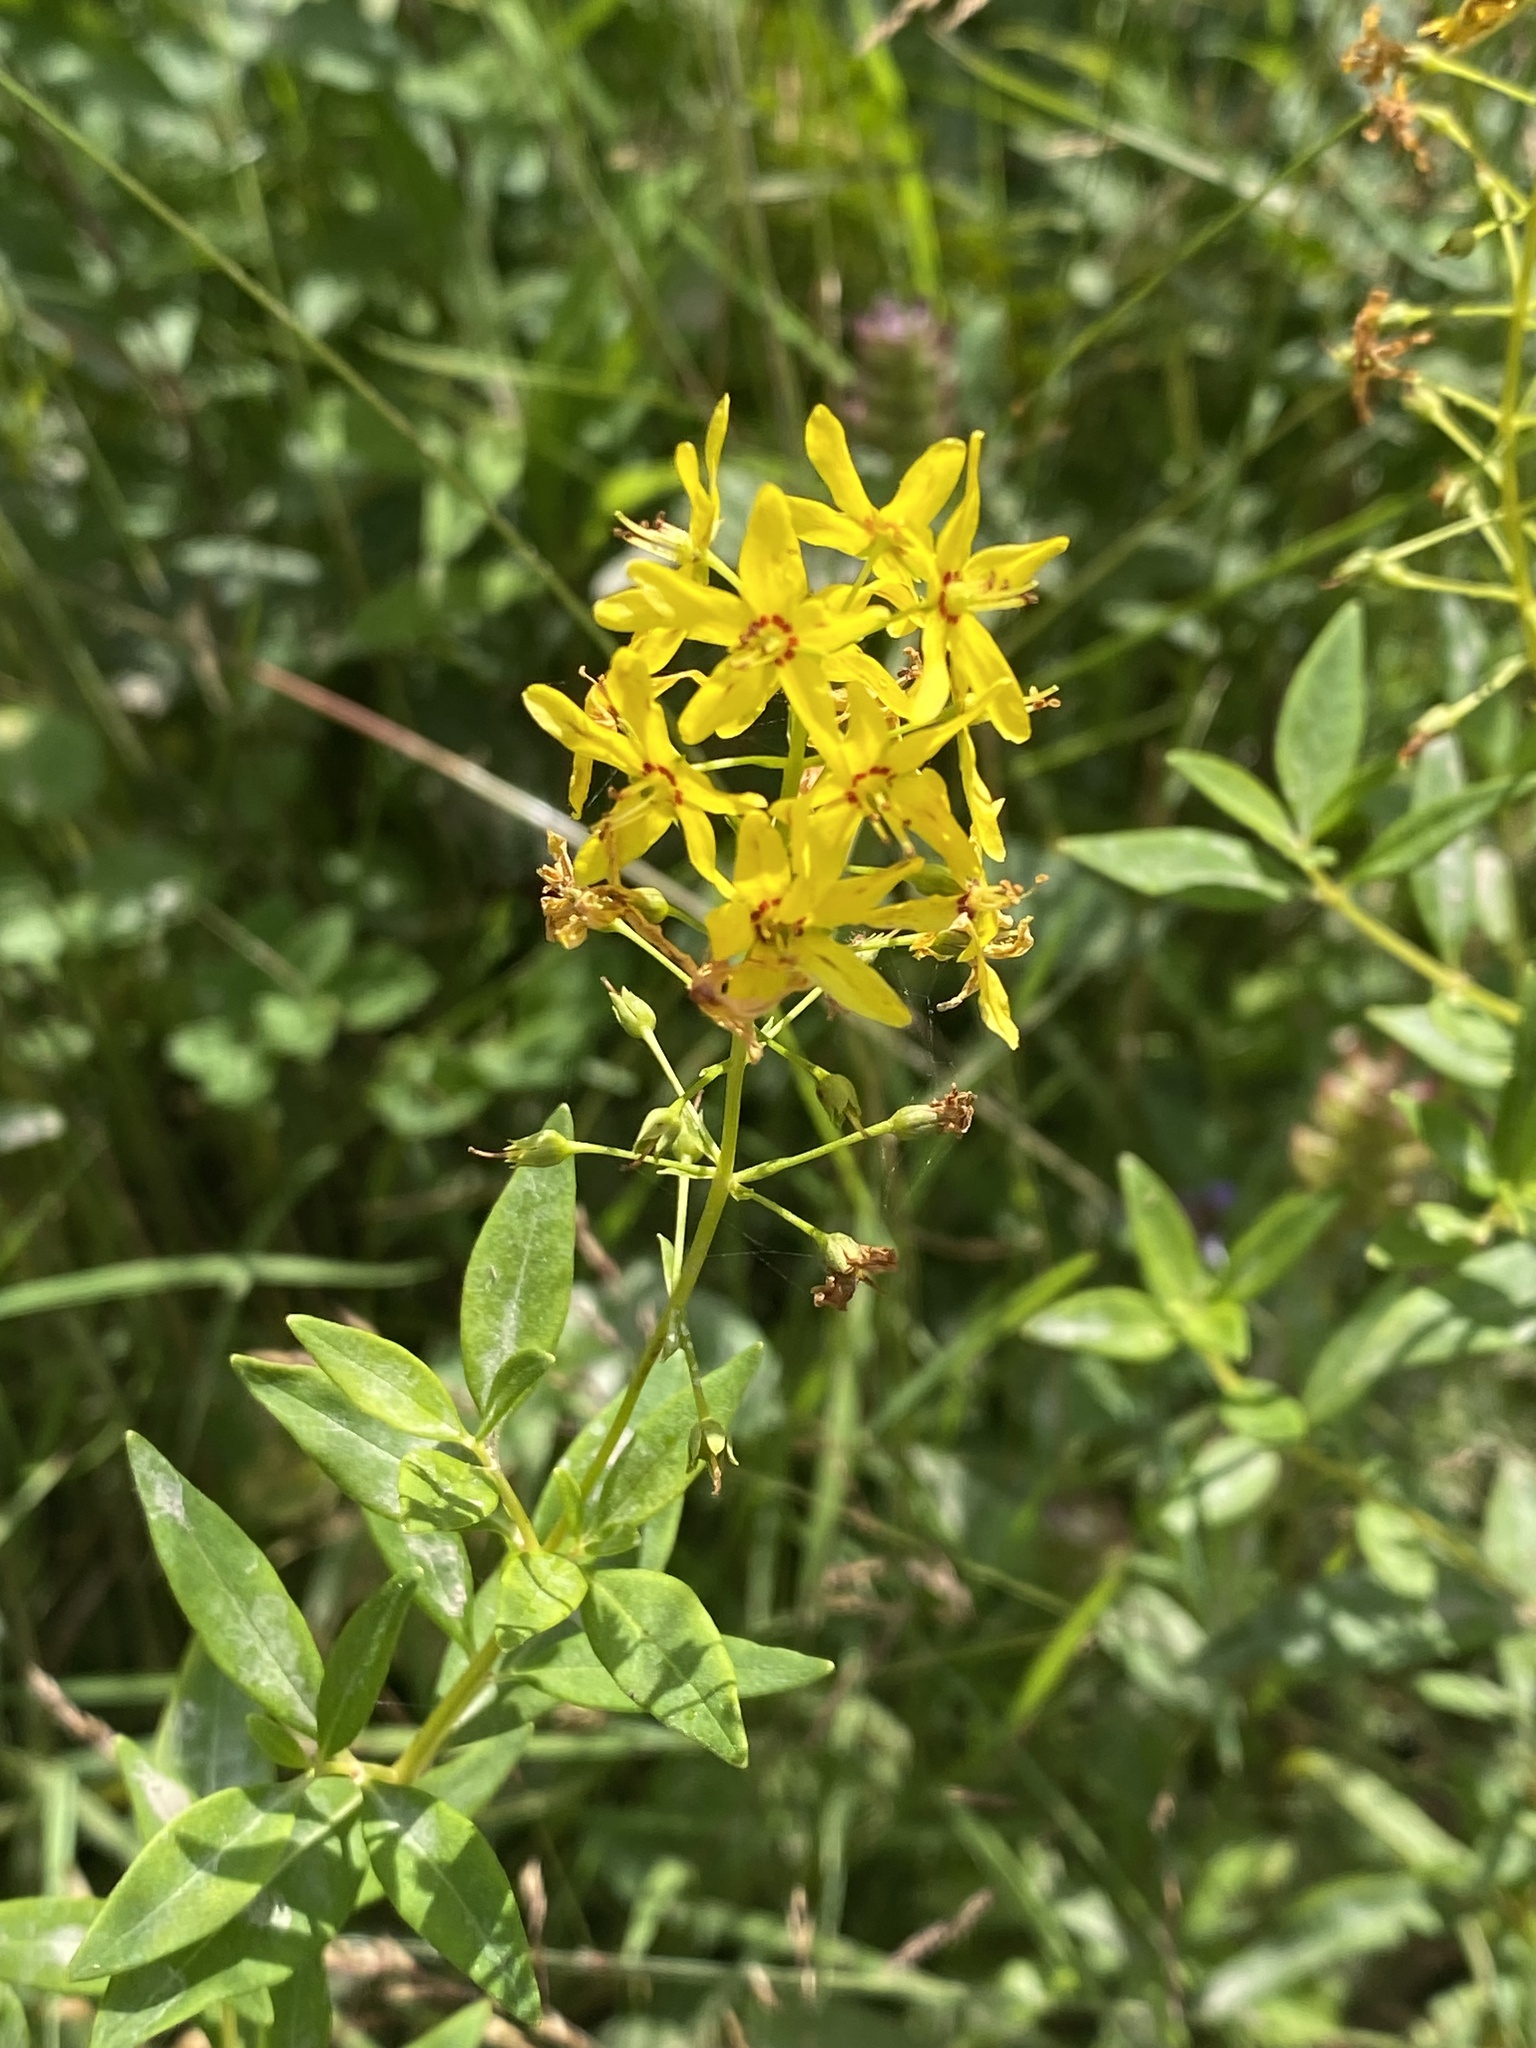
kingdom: Plantae
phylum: Tracheophyta
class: Magnoliopsida
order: Ericales
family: Primulaceae
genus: Lysimachia
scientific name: Lysimachia terrestris
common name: Lake loosestrife
